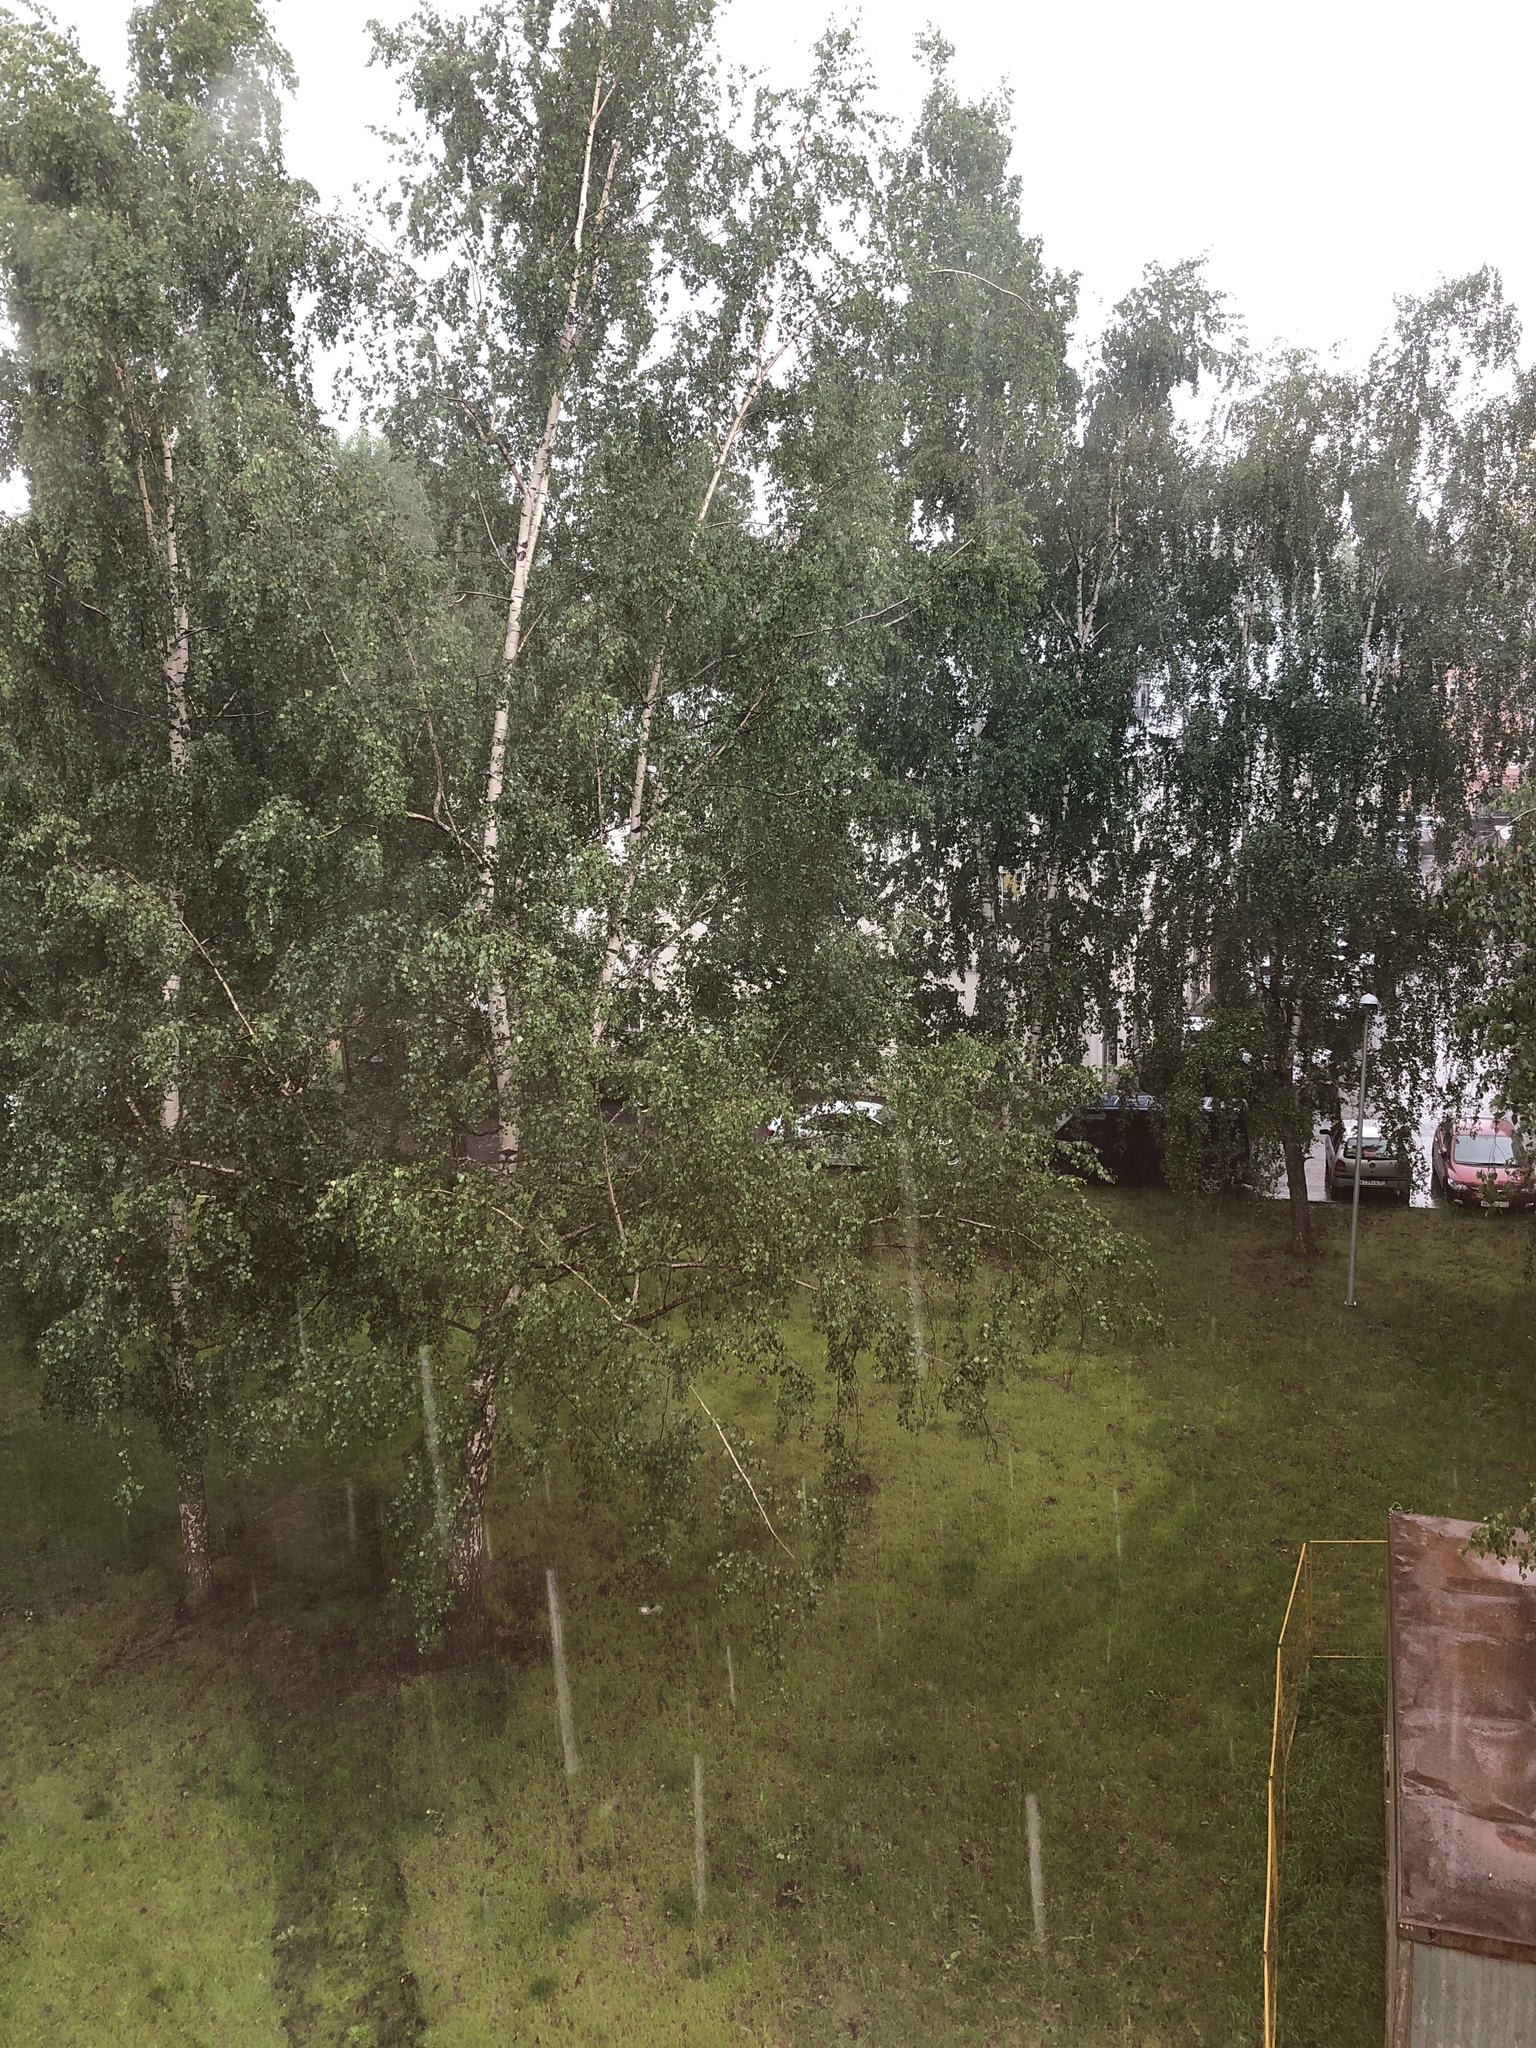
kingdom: Plantae
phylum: Tracheophyta
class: Magnoliopsida
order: Fagales
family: Betulaceae
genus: Betula
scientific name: Betula pendula
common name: Silver birch
